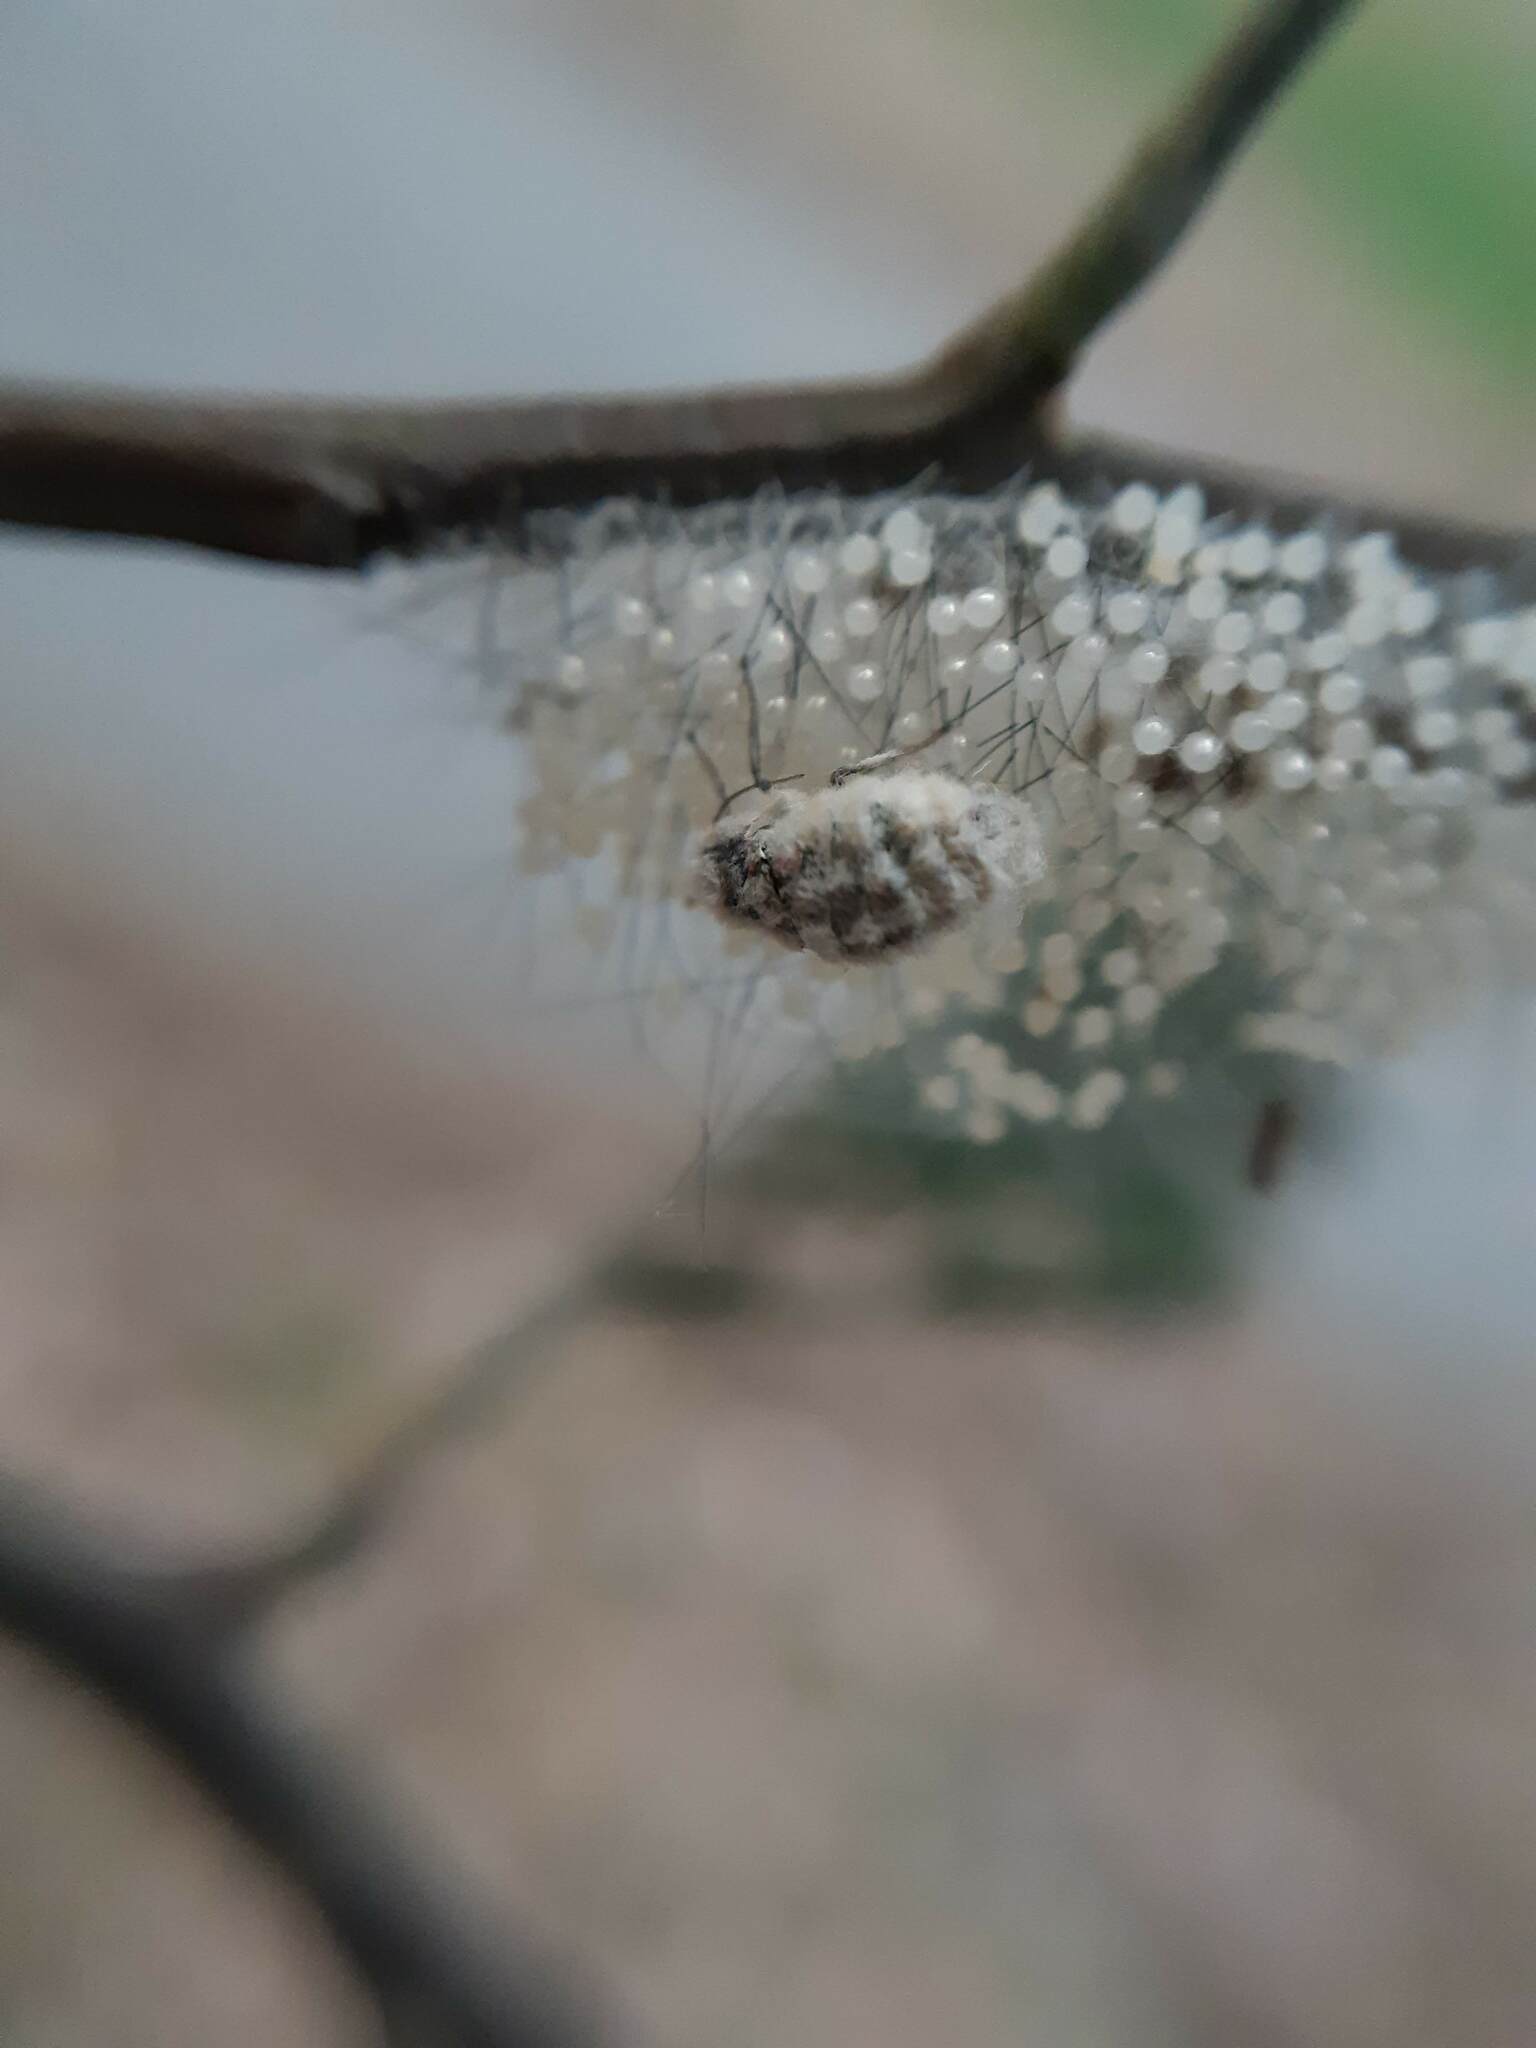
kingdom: Animalia
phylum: Arthropoda
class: Insecta
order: Lepidoptera
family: Erebidae
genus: Anestia
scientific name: Anestia
